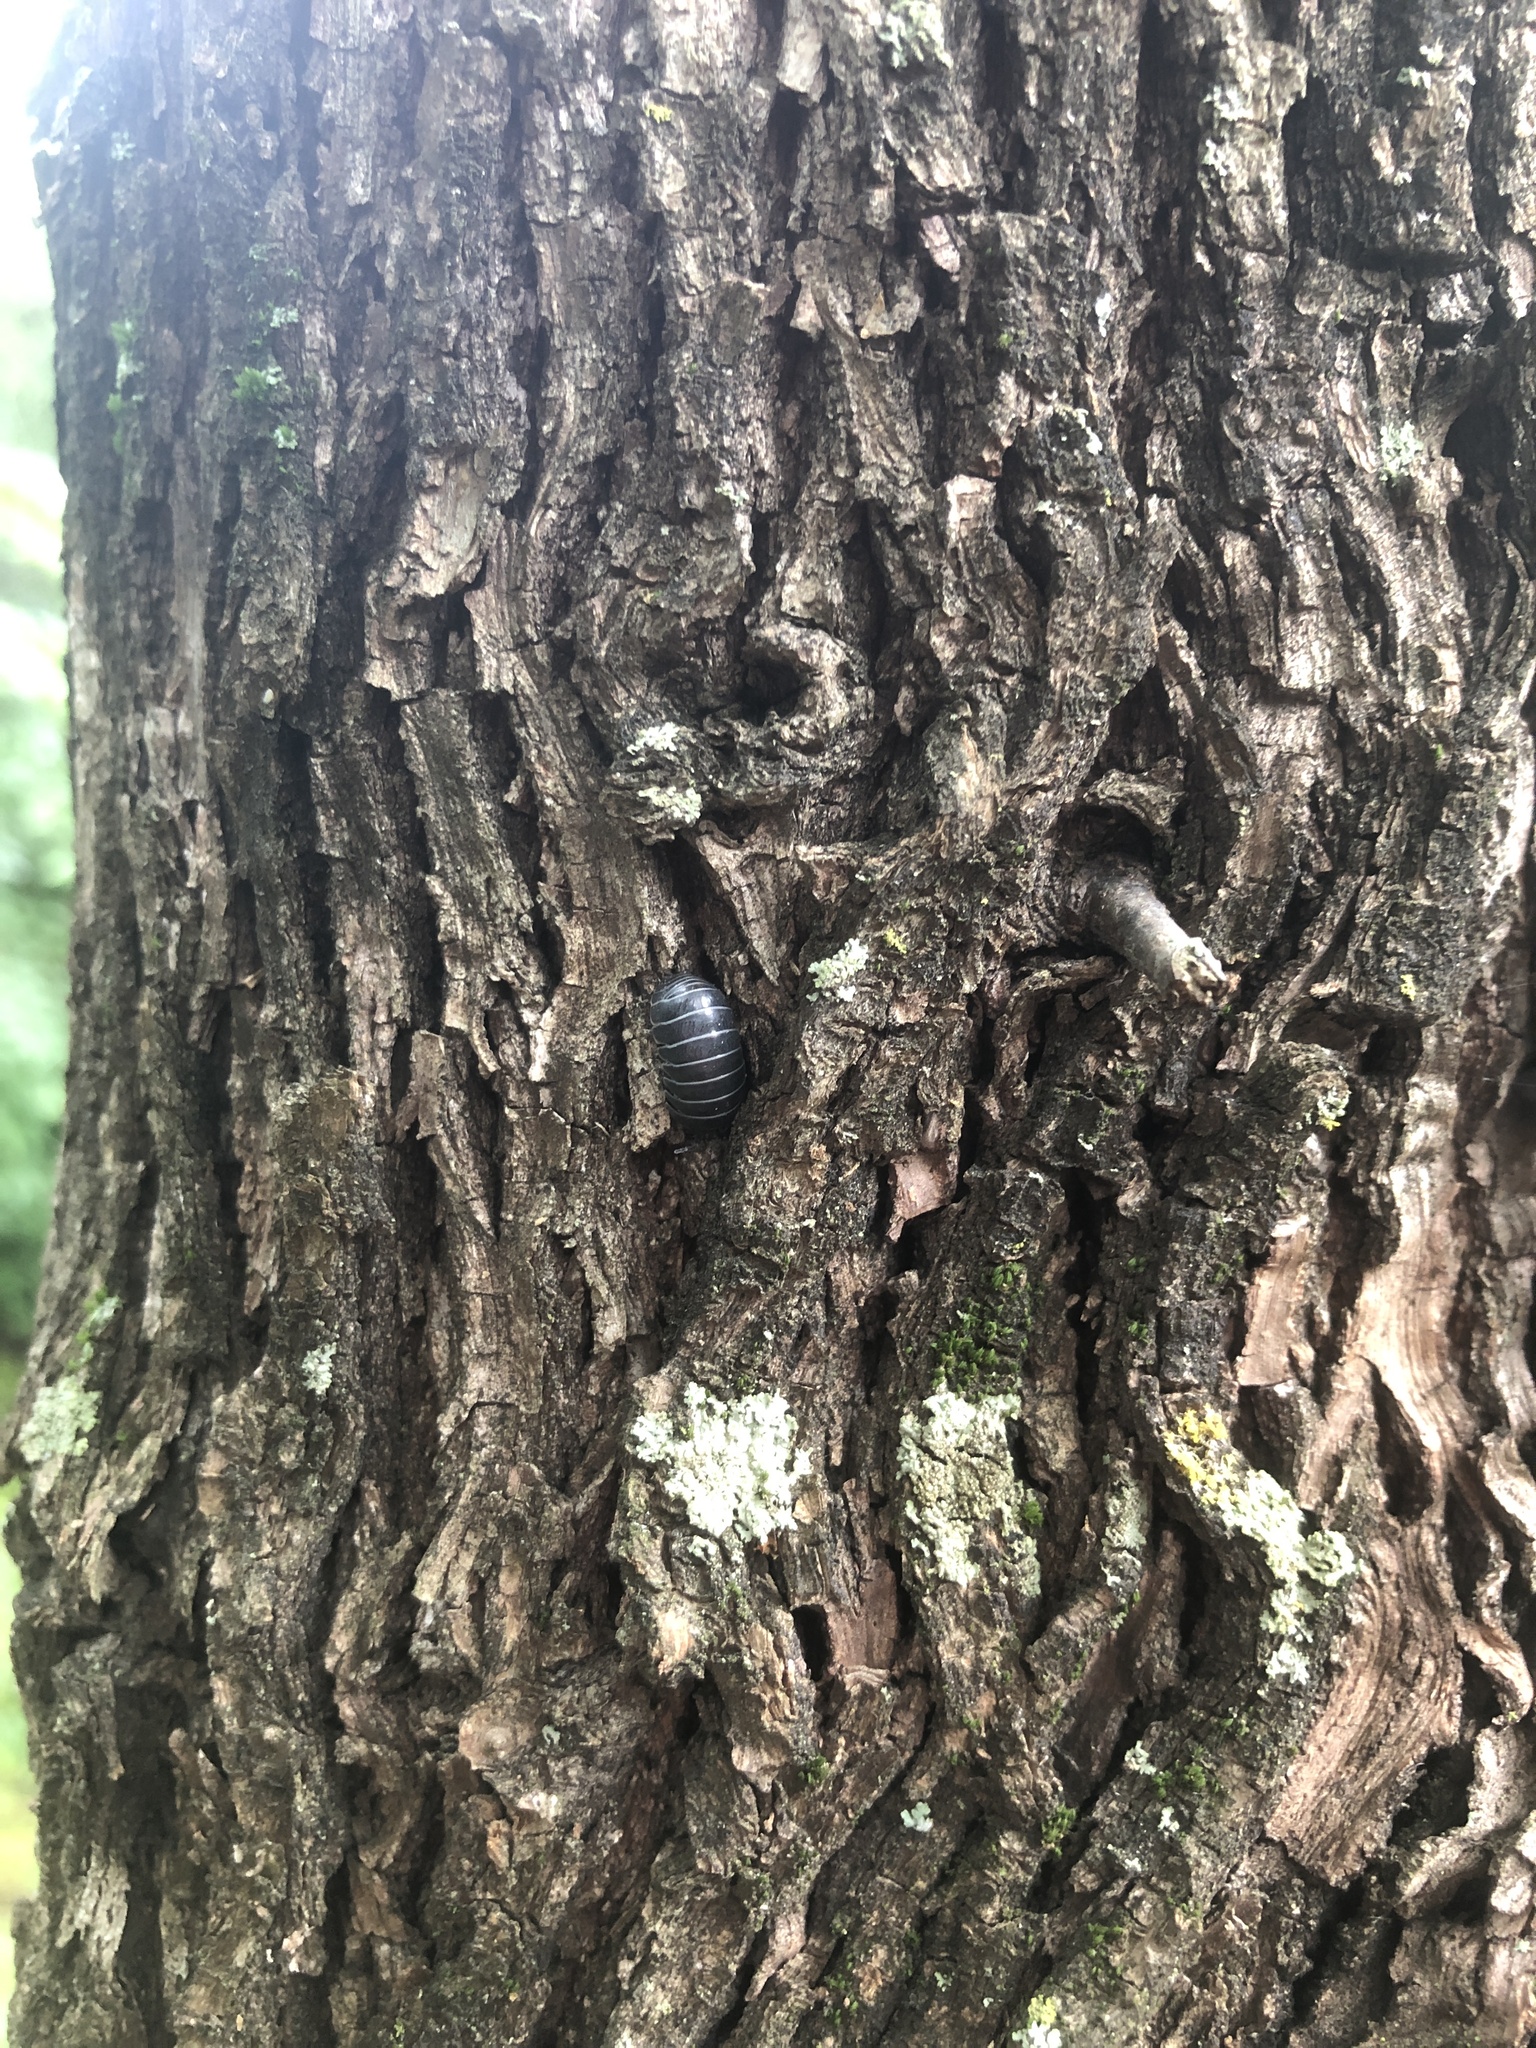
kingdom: Animalia
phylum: Arthropoda
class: Malacostraca
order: Isopoda
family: Armadillidiidae
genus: Armadillidium
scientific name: Armadillidium vulgare
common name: Common pill woodlouse
